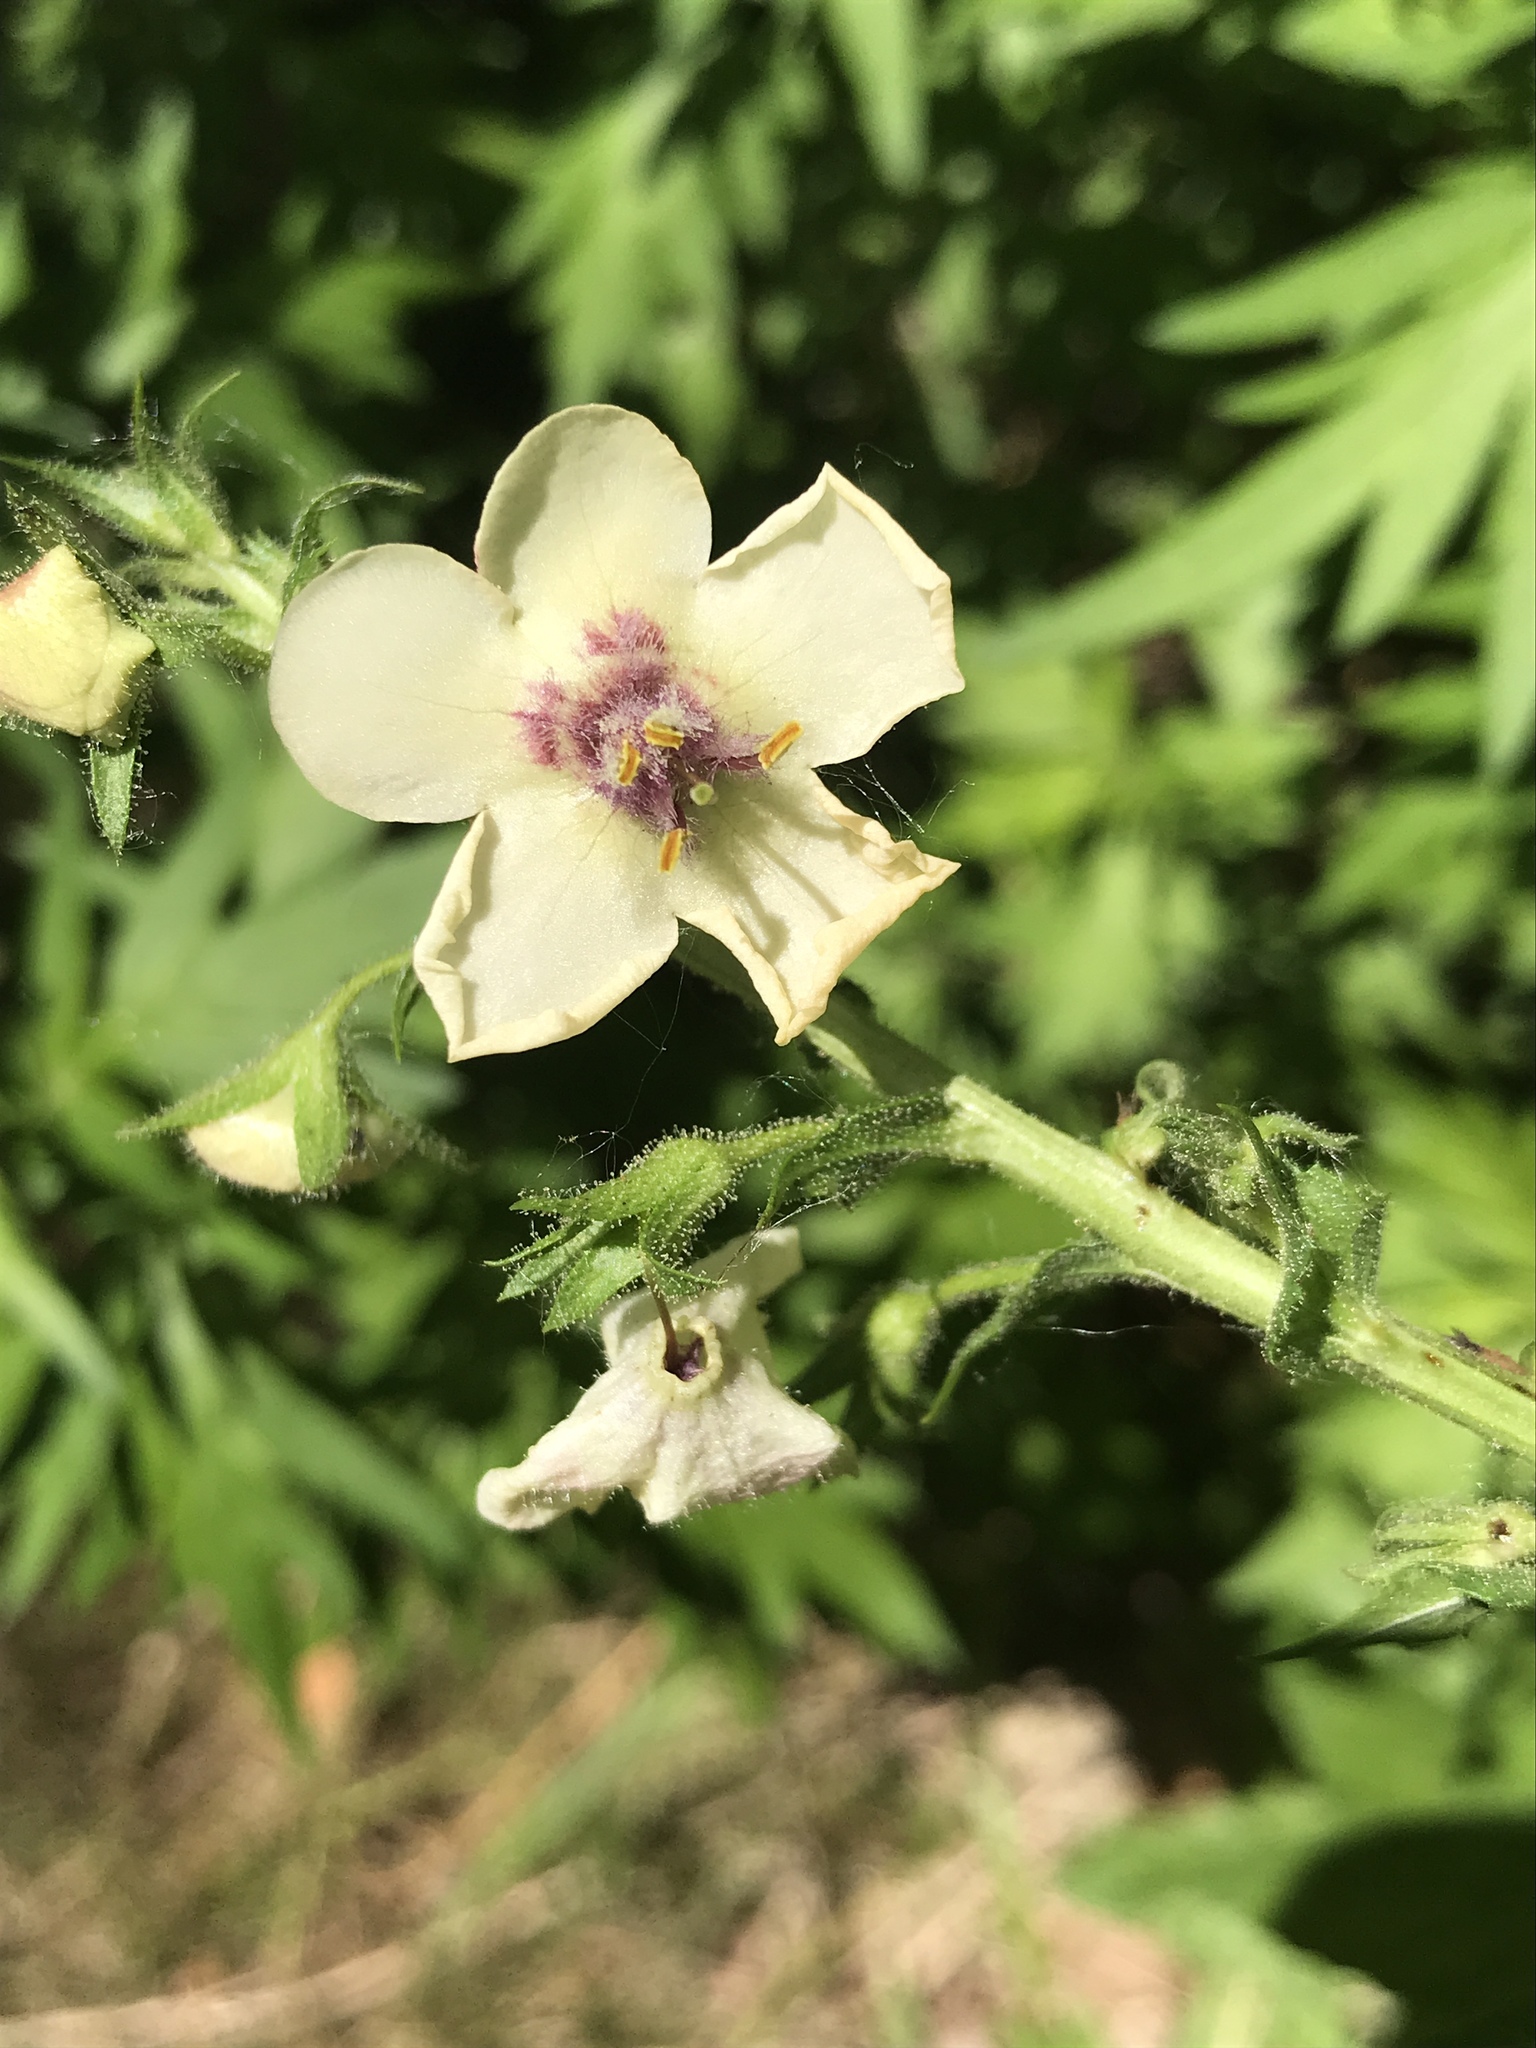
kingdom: Plantae
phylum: Tracheophyta
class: Magnoliopsida
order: Lamiales
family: Scrophulariaceae
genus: Verbascum
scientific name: Verbascum blattaria
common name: Moth mullein
